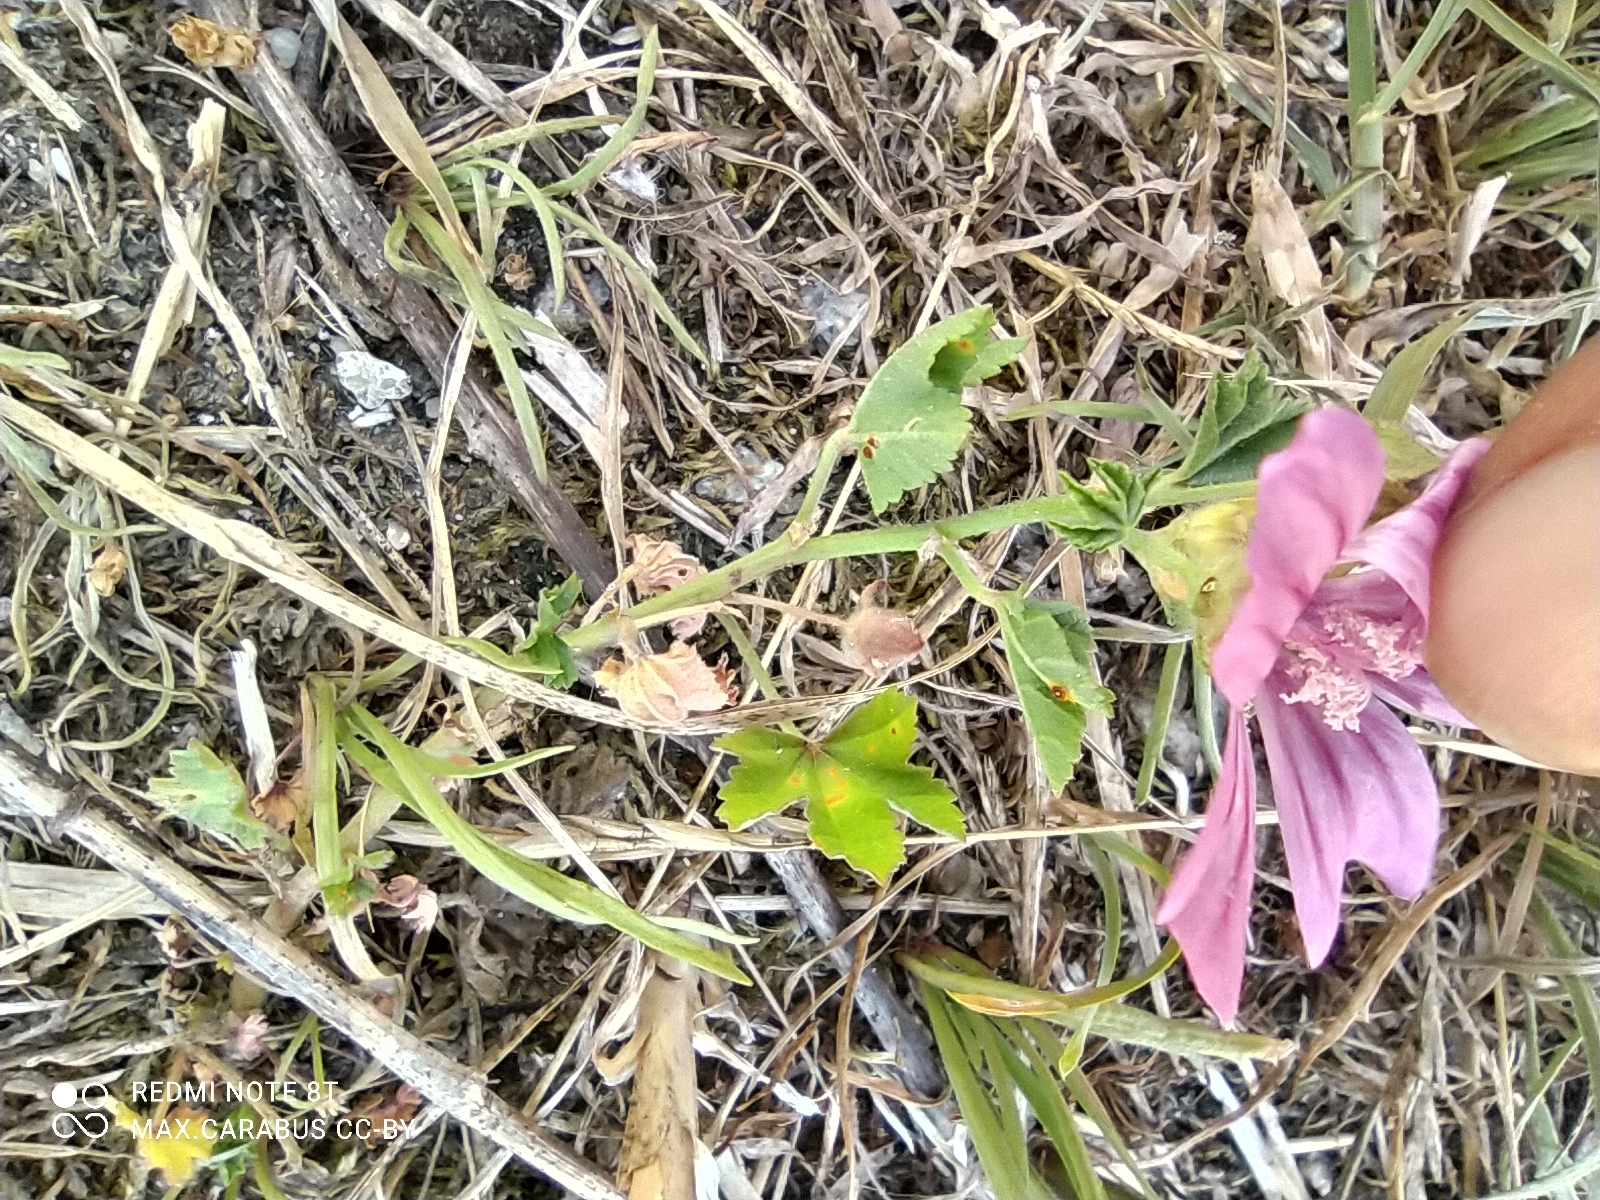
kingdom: Plantae
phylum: Tracheophyta
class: Magnoliopsida
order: Malvales
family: Malvaceae
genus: Malva
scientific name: Malva sylvestris
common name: Common mallow
